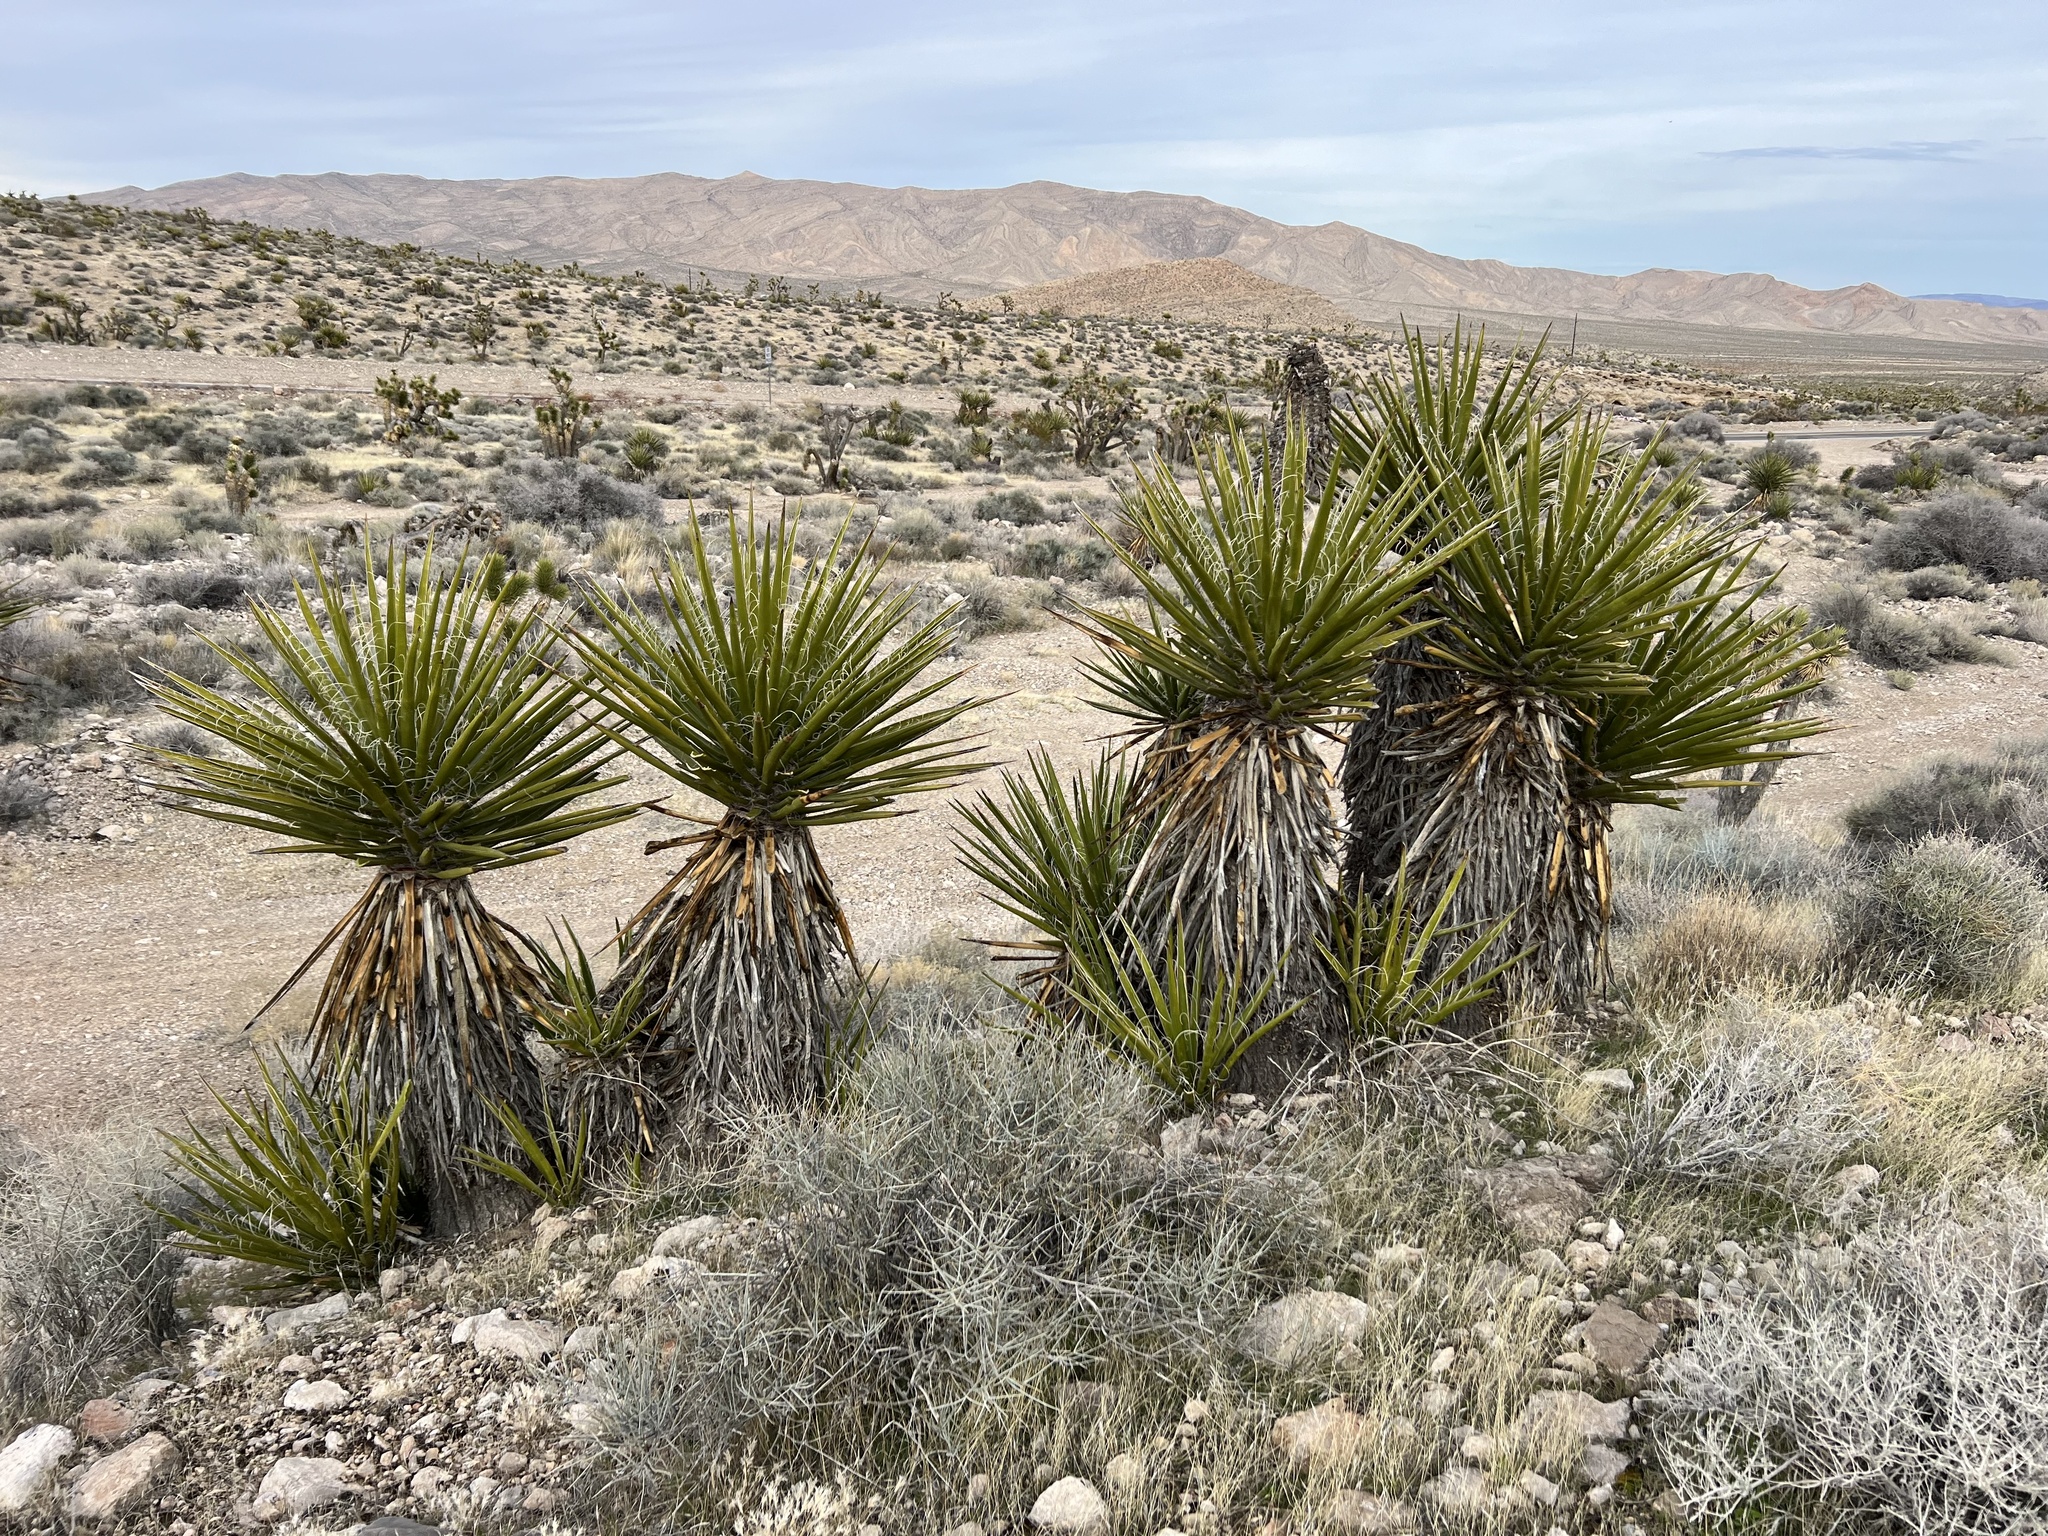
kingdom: Plantae
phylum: Tracheophyta
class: Liliopsida
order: Asparagales
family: Asparagaceae
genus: Yucca
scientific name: Yucca schidigera
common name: Mojave yucca
